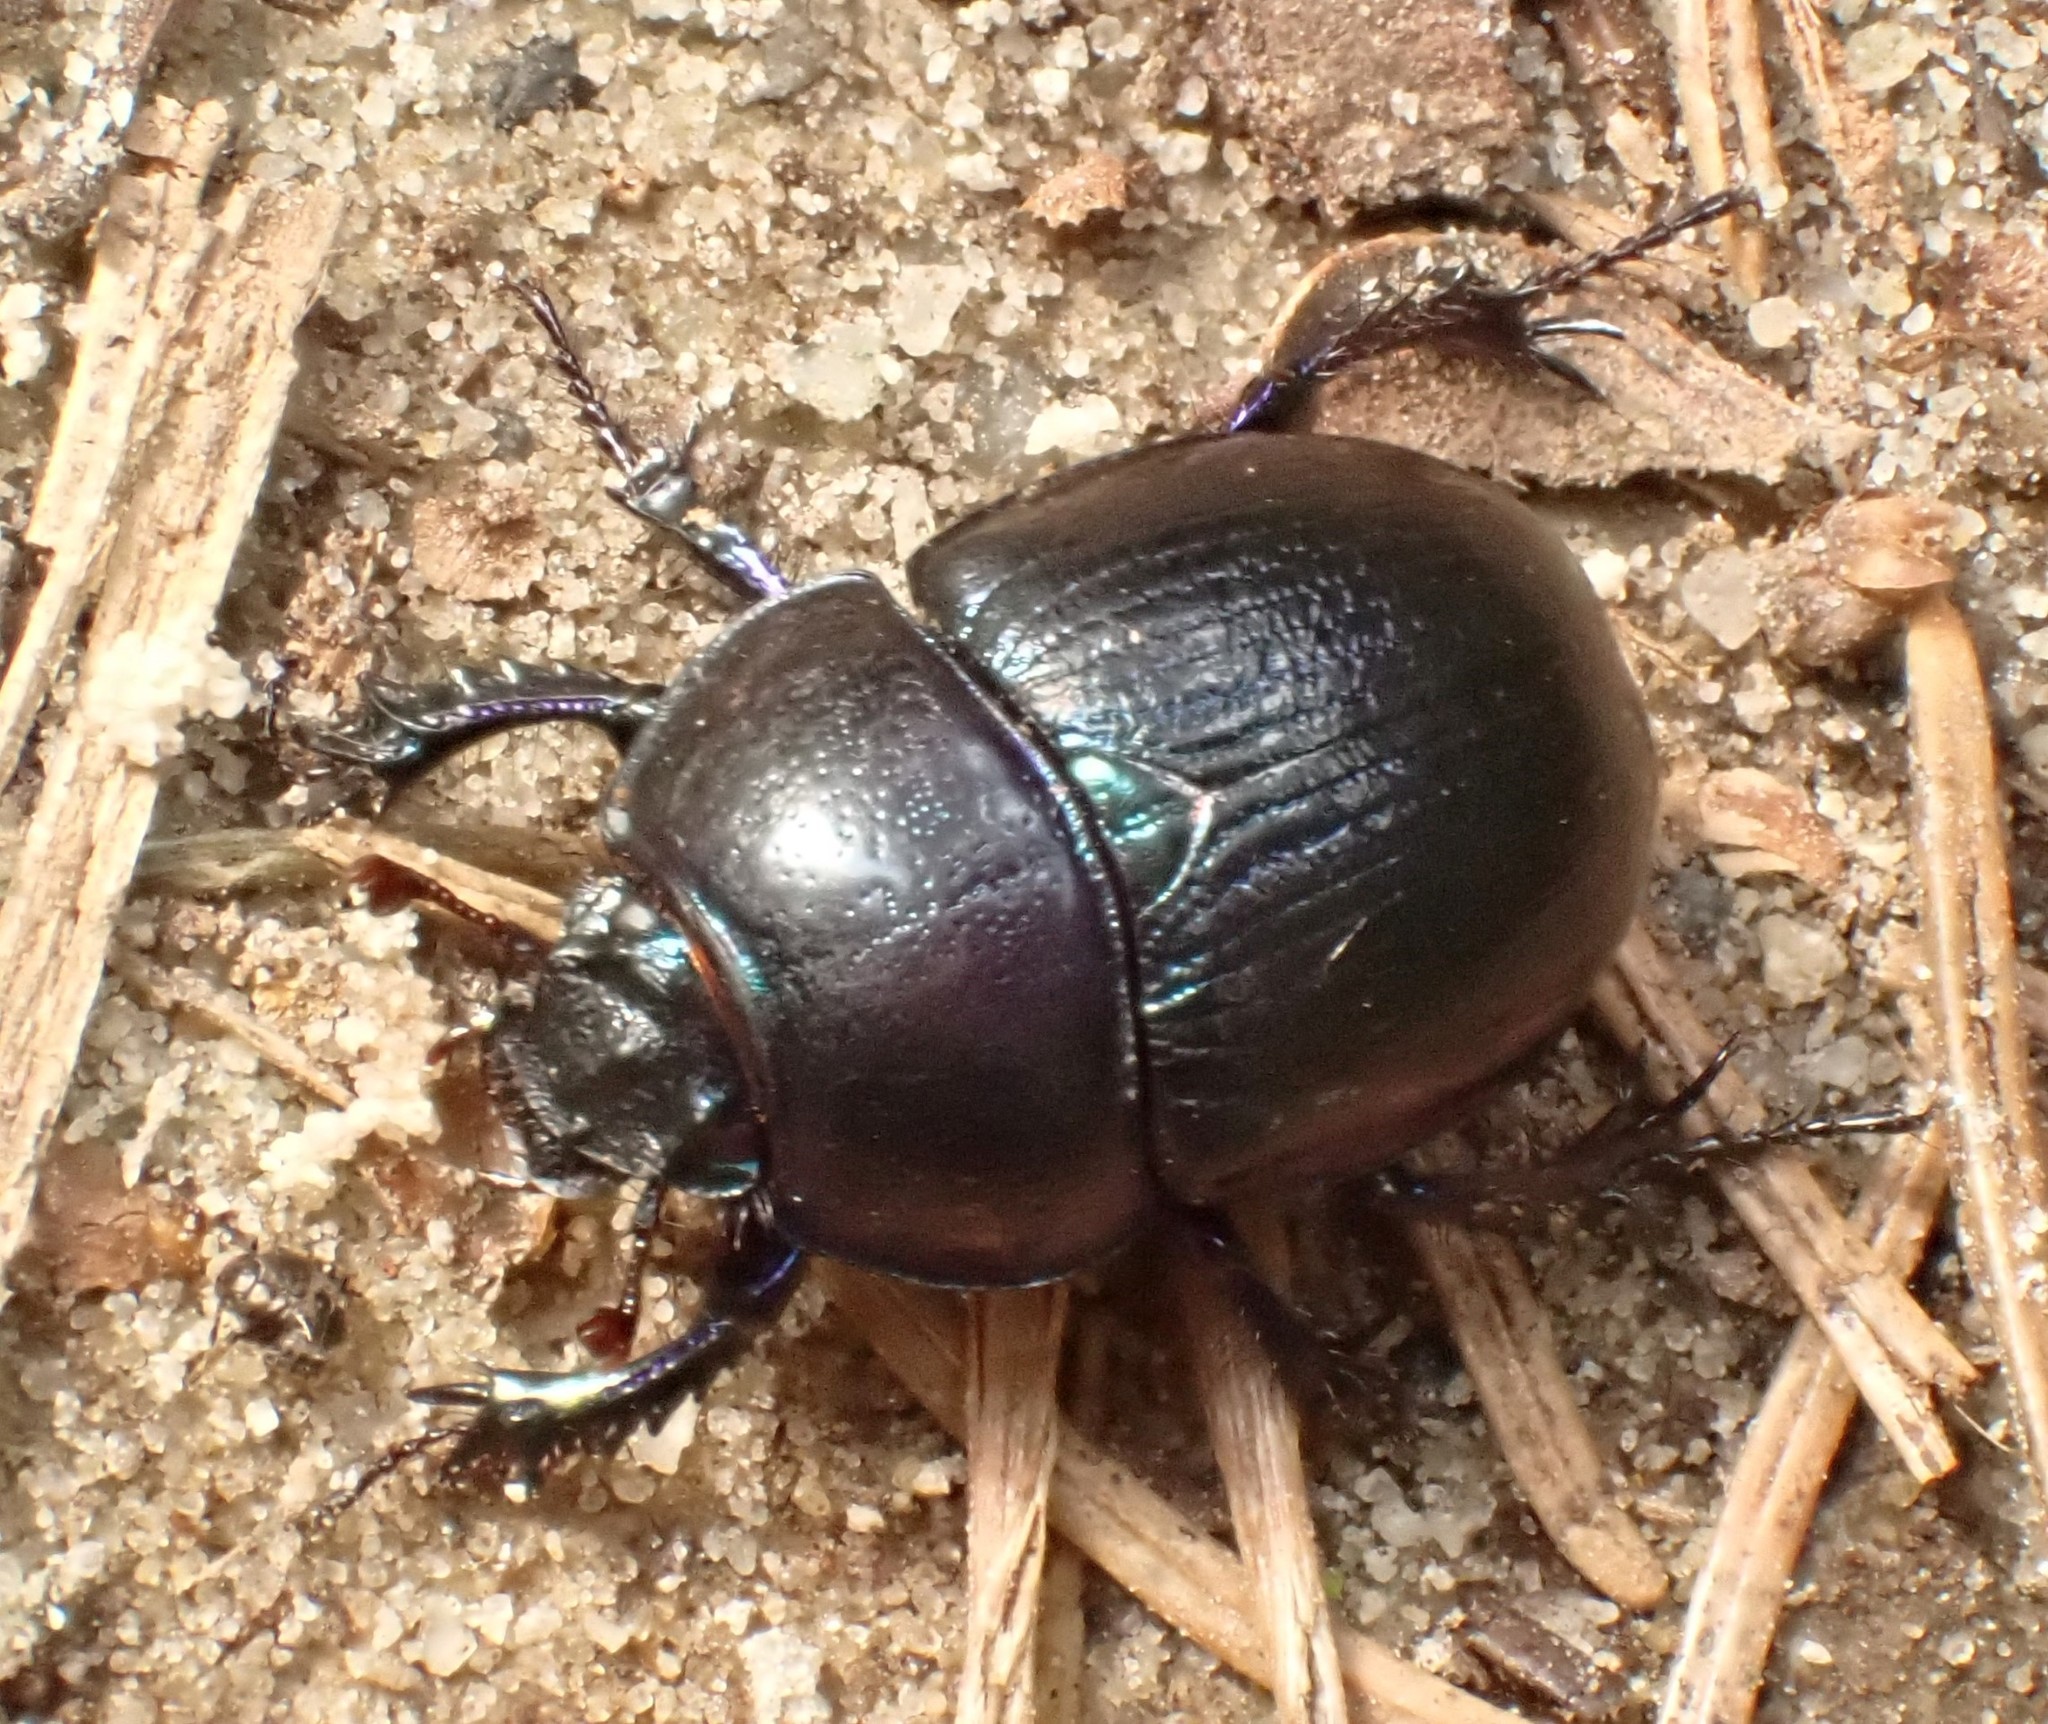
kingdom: Animalia
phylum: Arthropoda
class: Insecta
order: Coleoptera
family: Geotrupidae
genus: Anoplotrupes
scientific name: Anoplotrupes stercorosus
